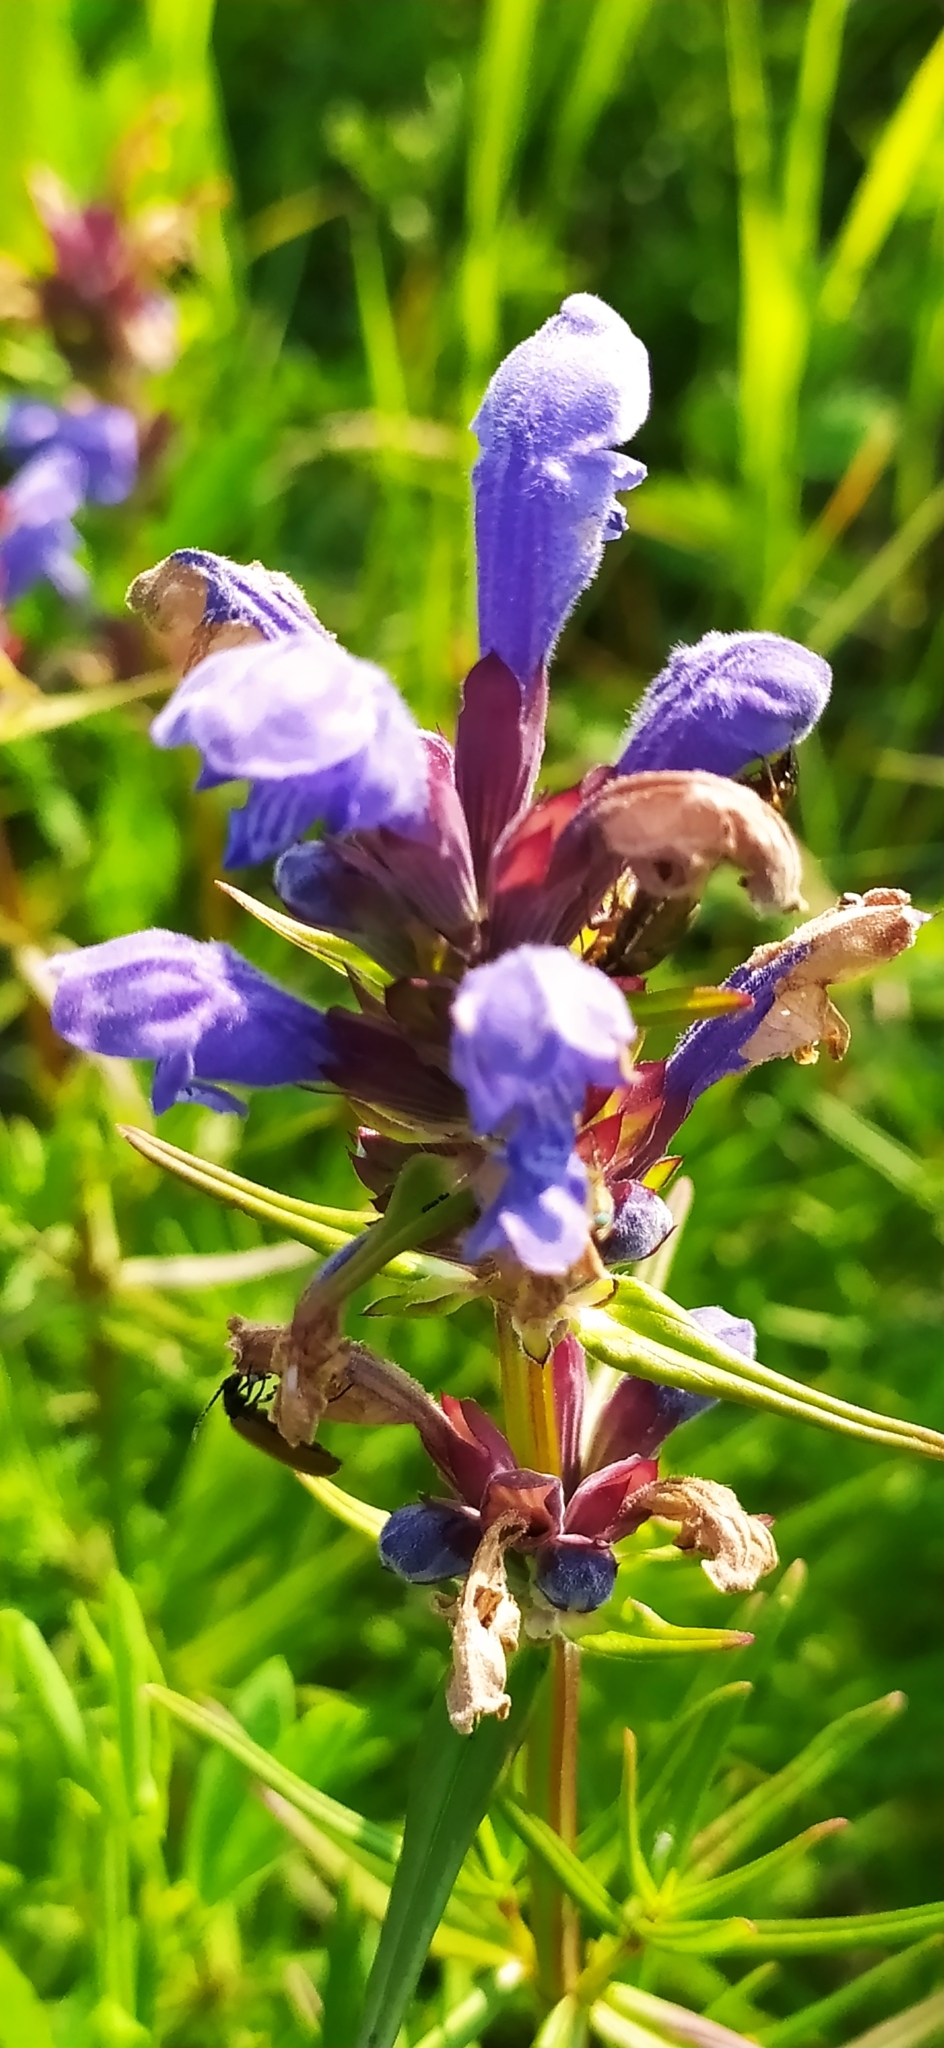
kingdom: Plantae
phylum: Tracheophyta
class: Magnoliopsida
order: Lamiales
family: Lamiaceae
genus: Dracocephalum
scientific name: Dracocephalum ruyschiana
